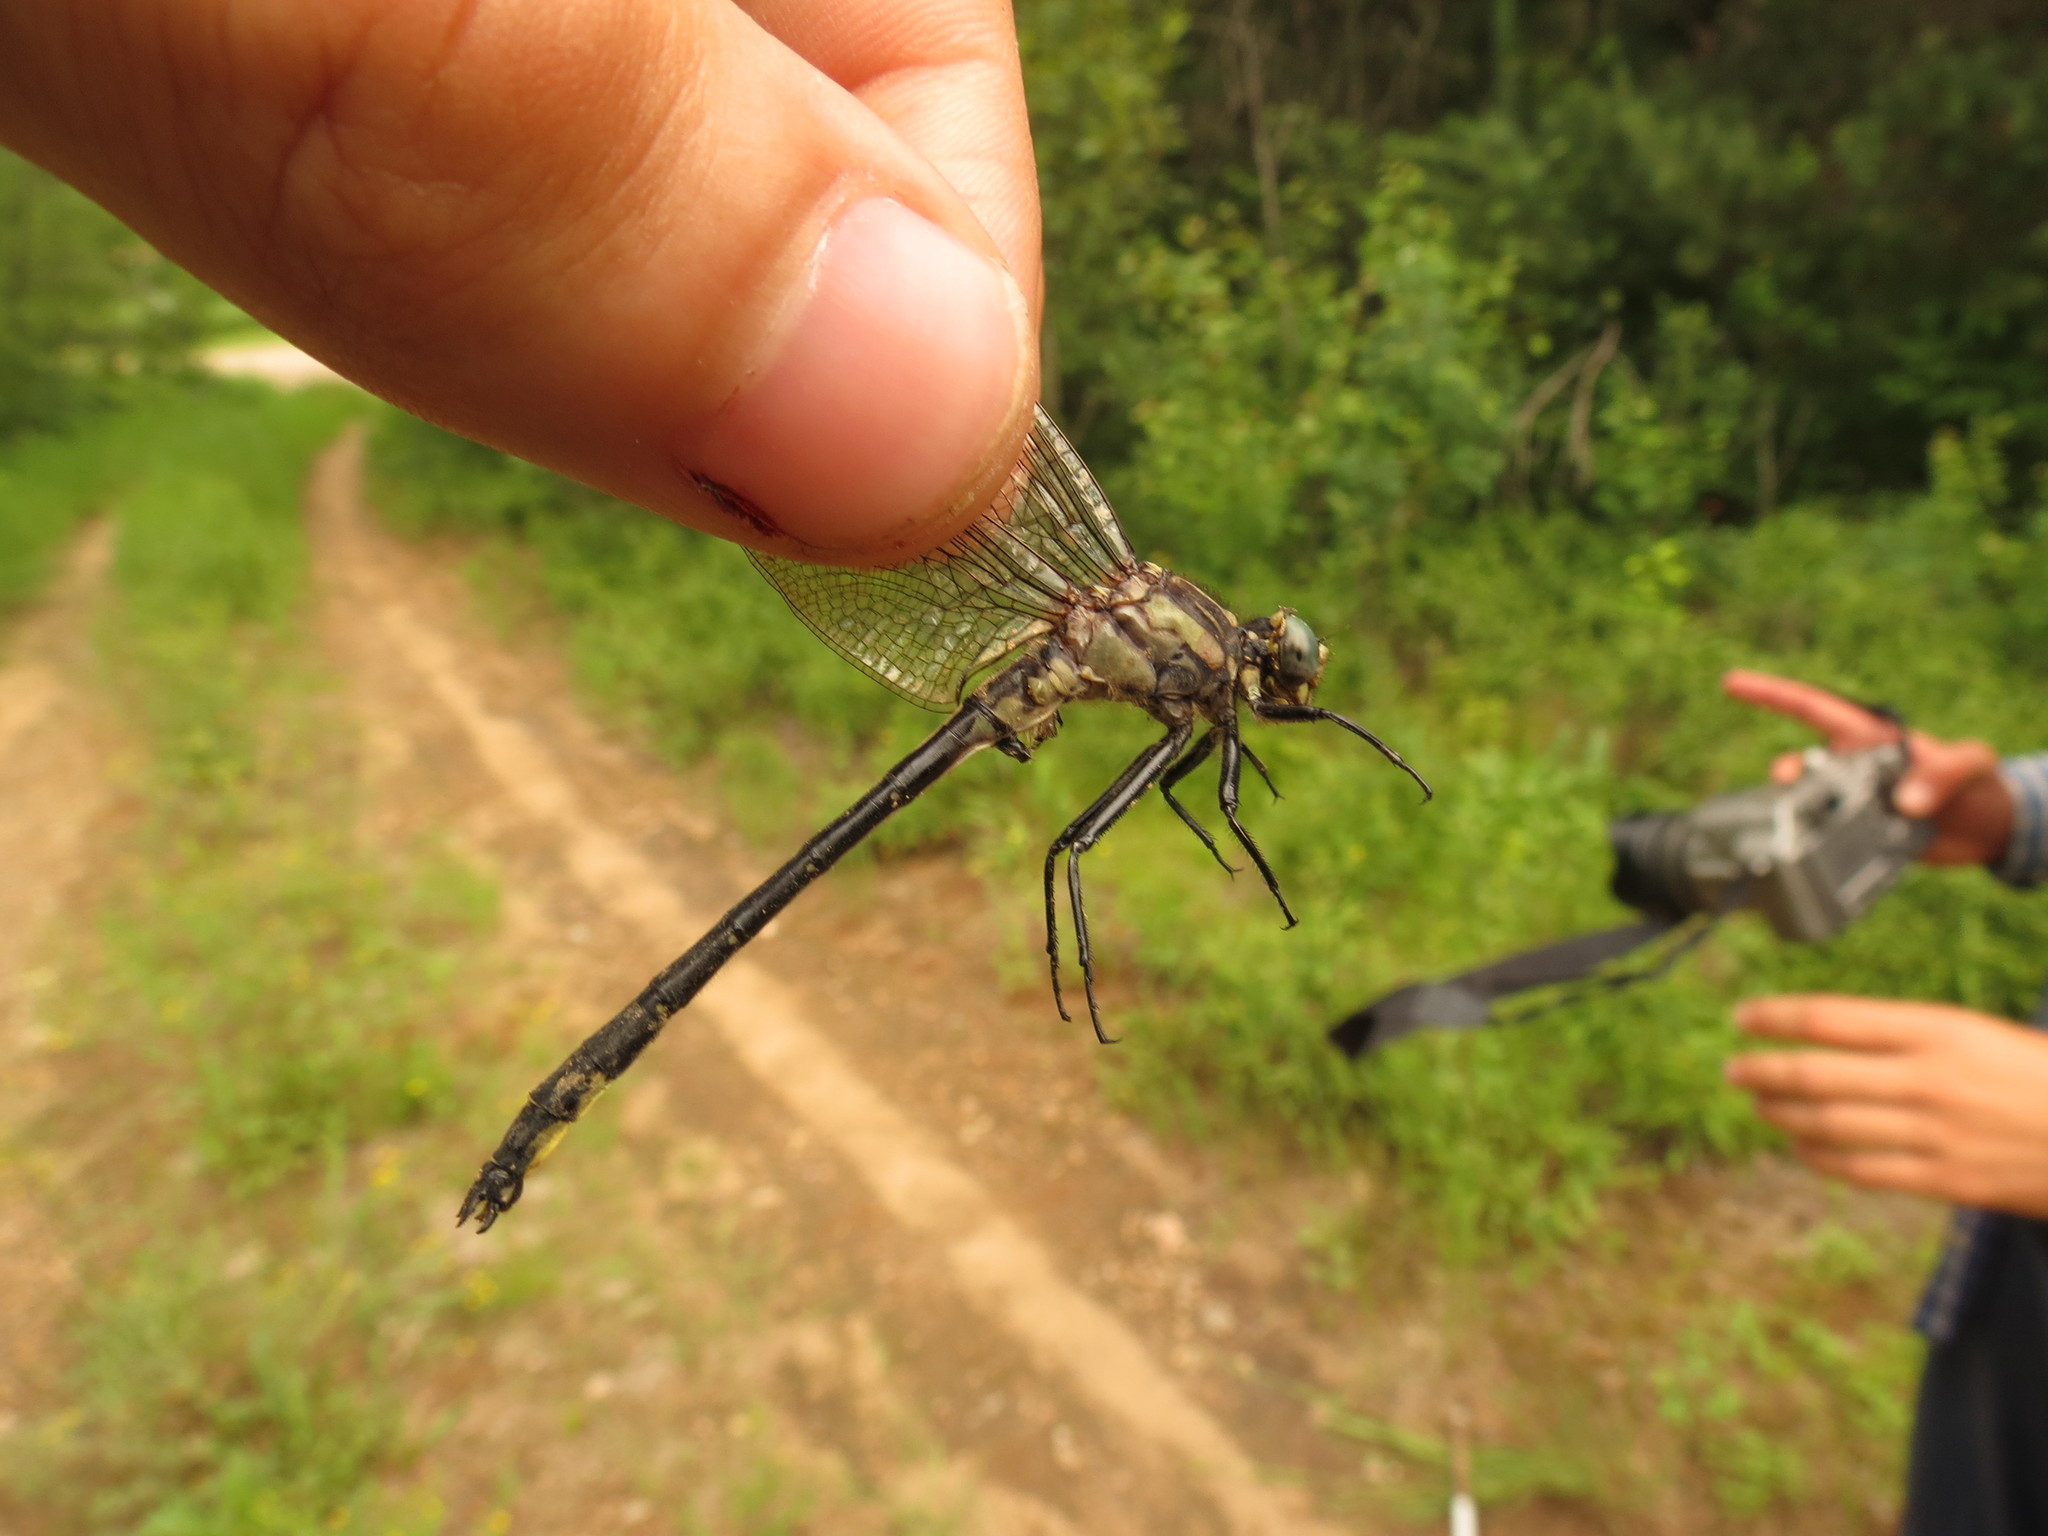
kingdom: Animalia
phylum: Arthropoda
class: Insecta
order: Odonata
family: Gomphidae
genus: Phanogomphus
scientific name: Phanogomphus descriptus
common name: Harpoon clubtail
